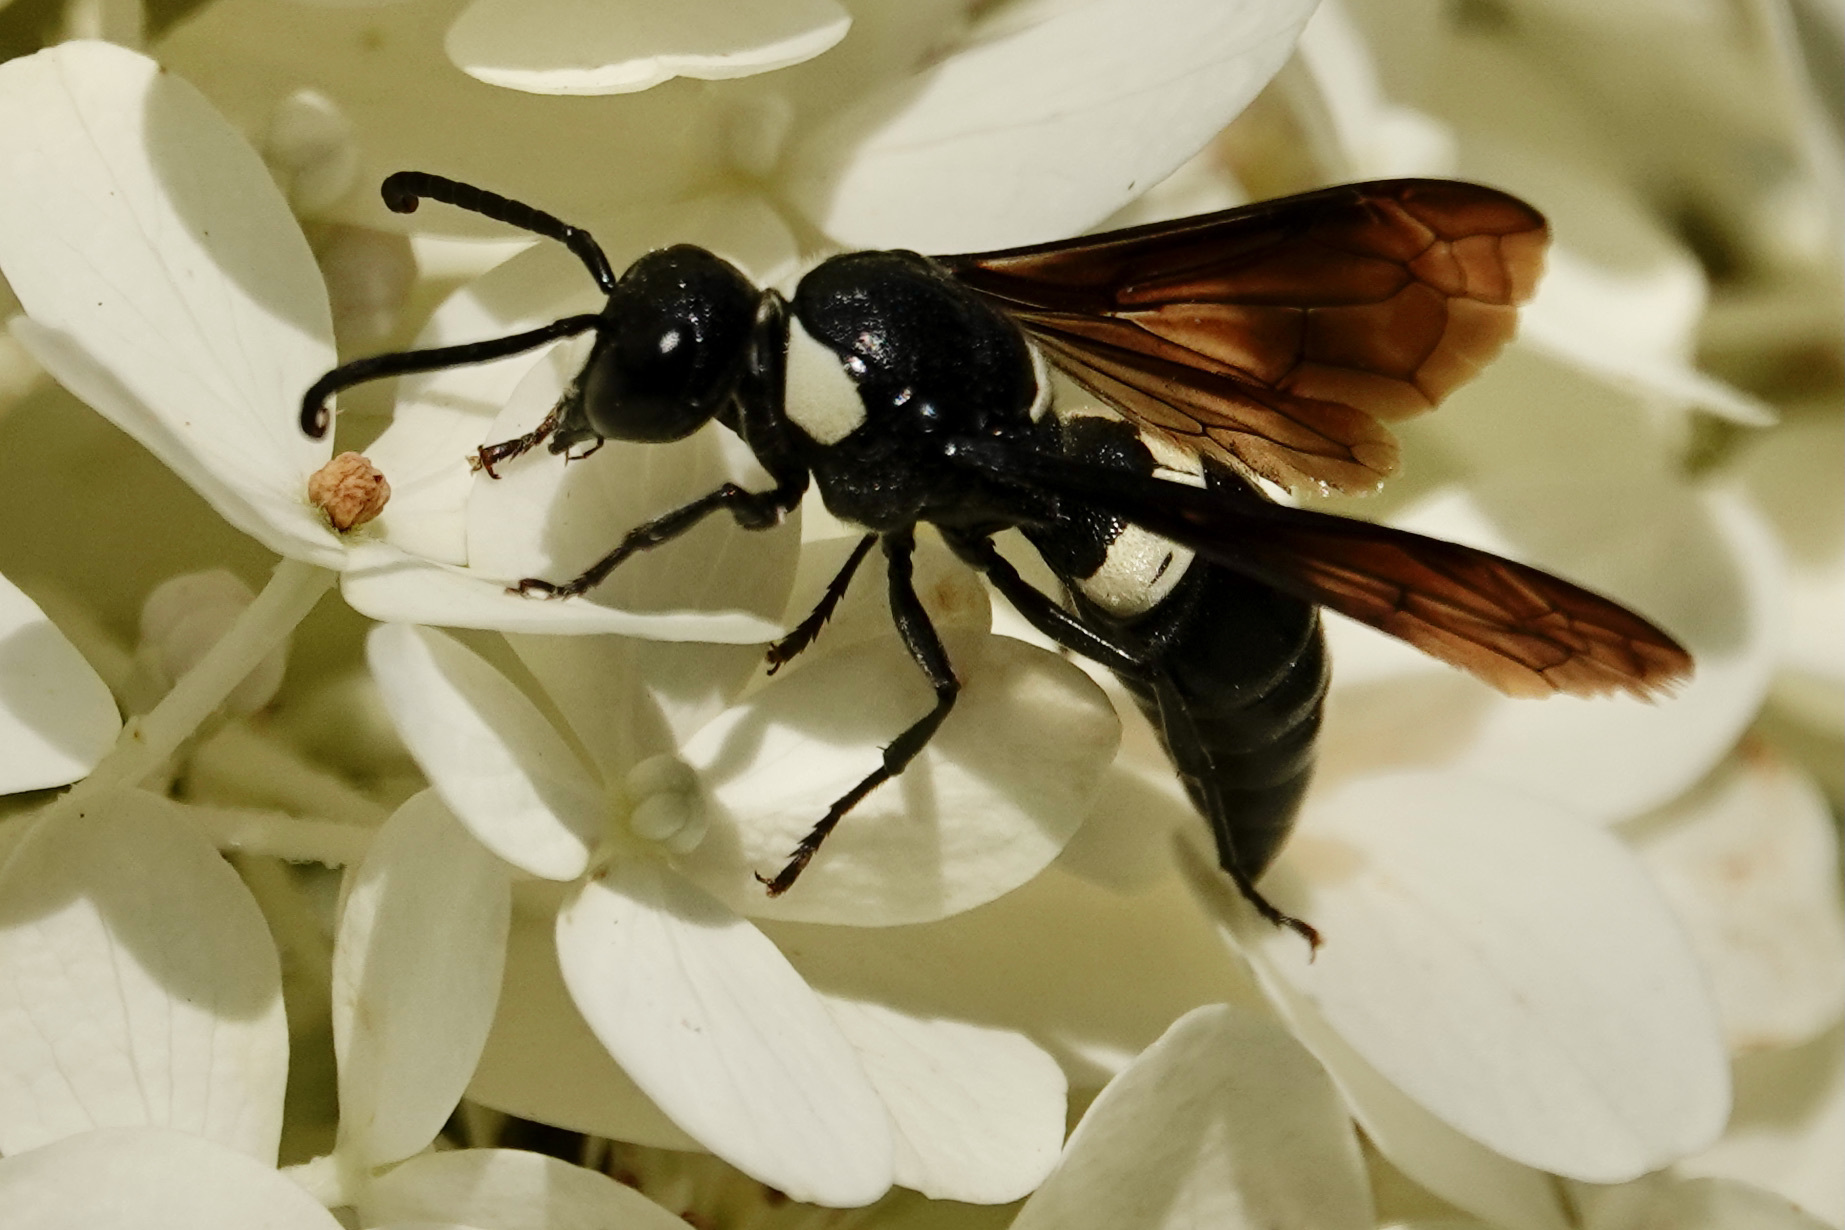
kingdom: Animalia
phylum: Arthropoda
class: Insecta
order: Hymenoptera
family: Eumenidae
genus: Monobia
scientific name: Monobia quadridens
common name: Four-toothed mason wasp
